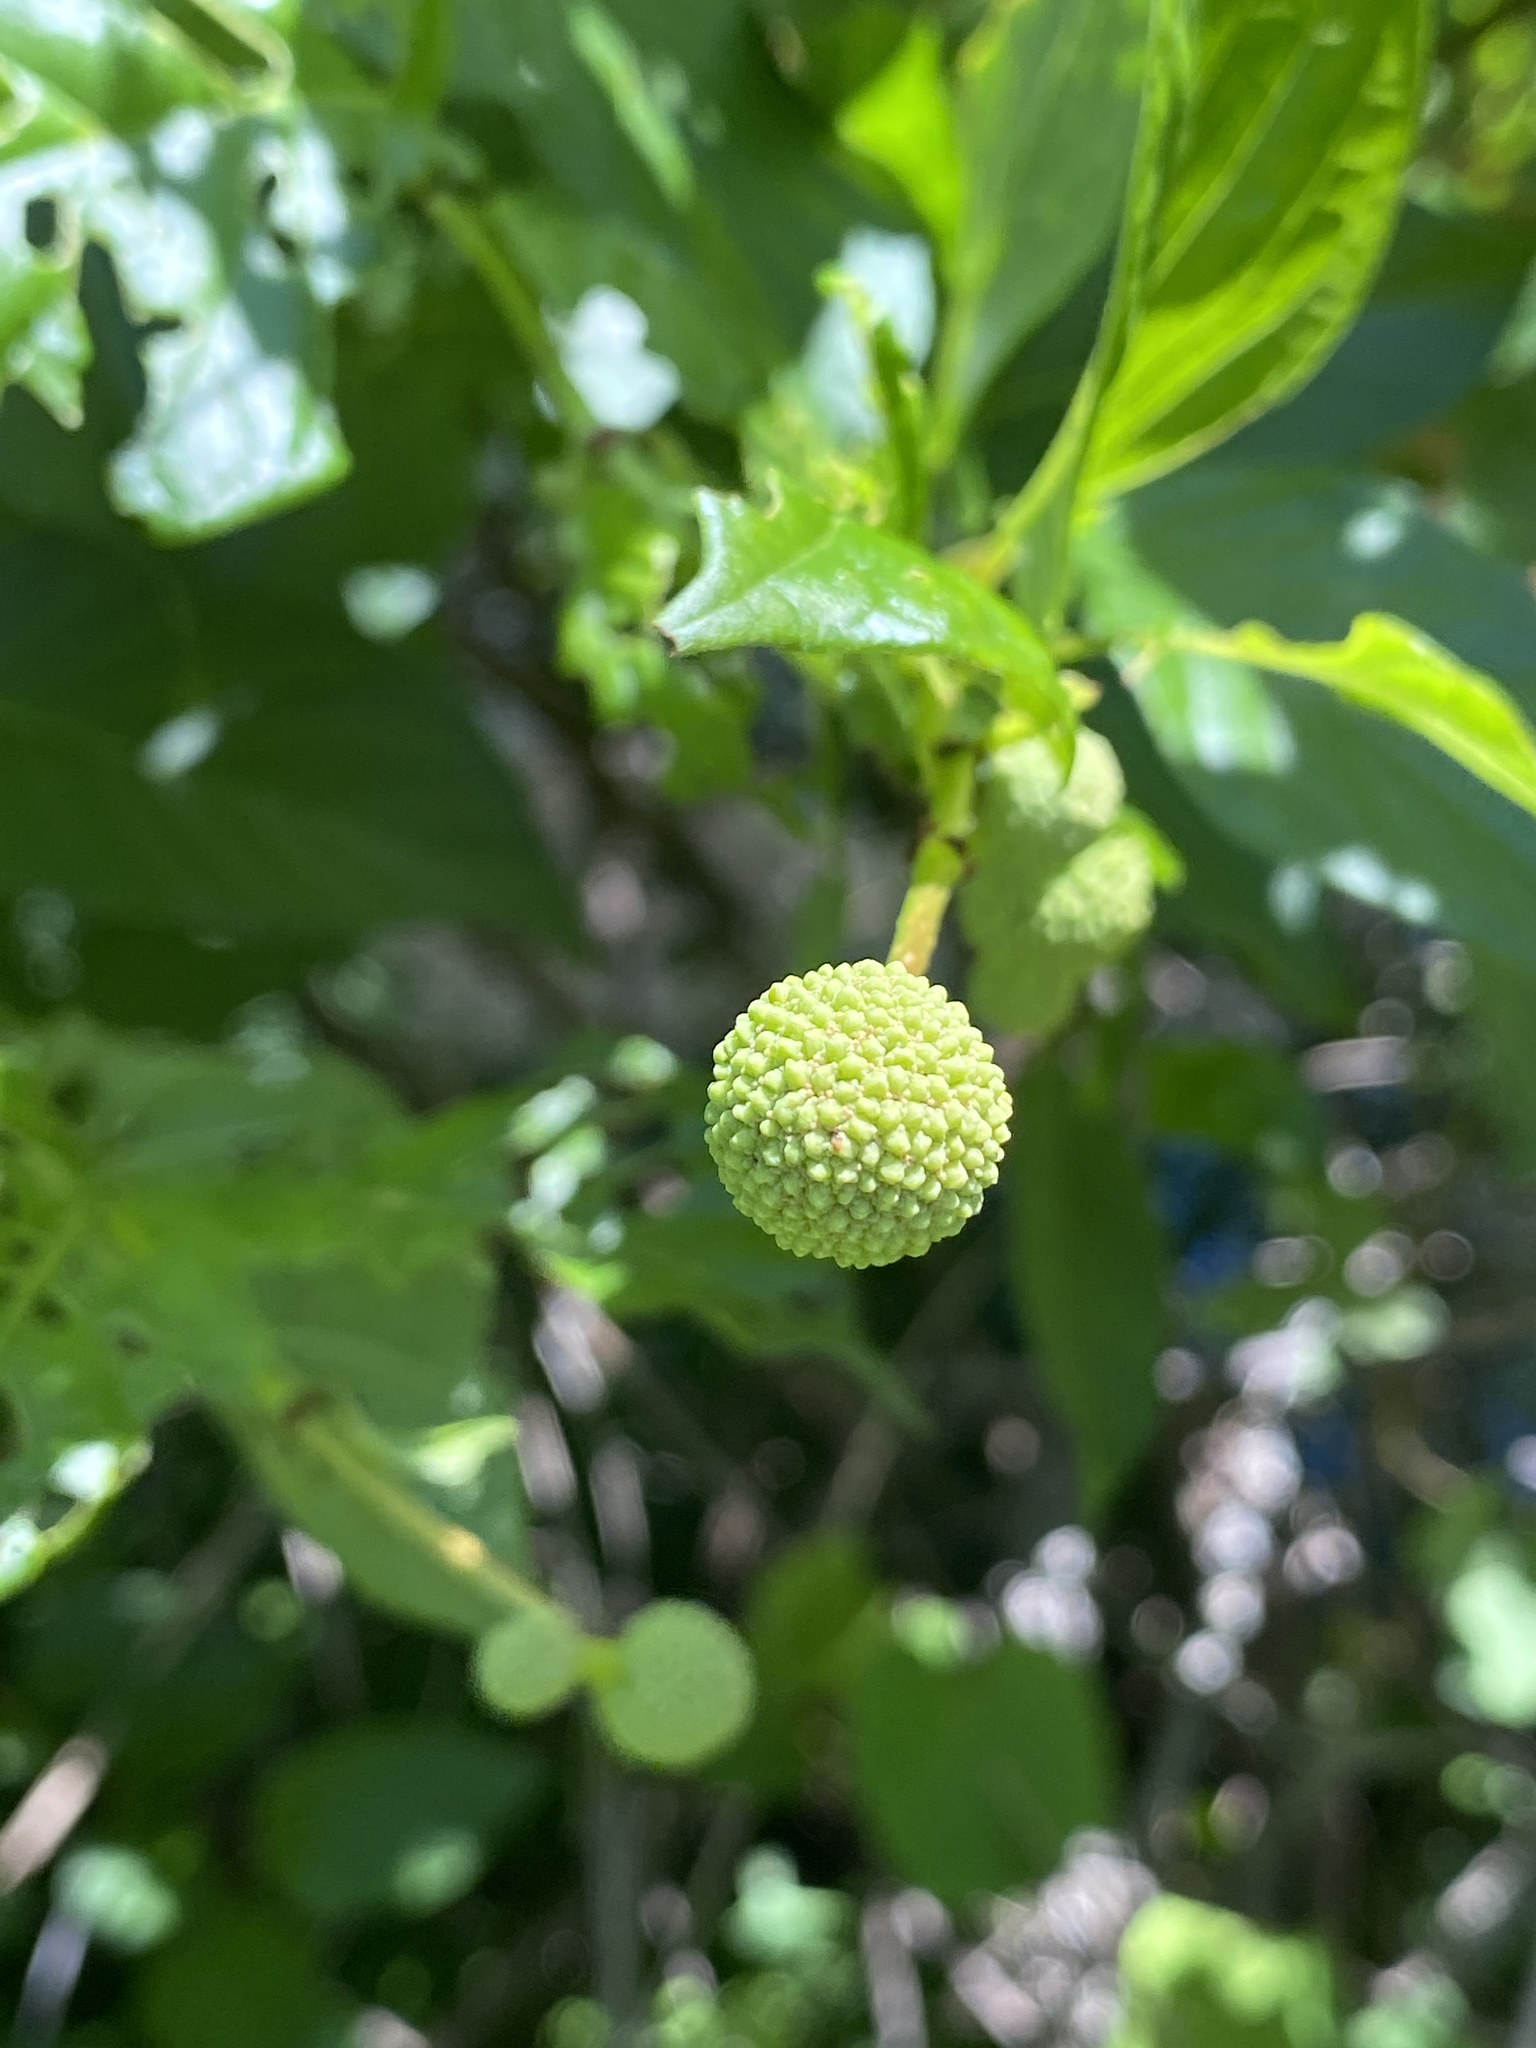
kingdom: Plantae
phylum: Tracheophyta
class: Magnoliopsida
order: Gentianales
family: Rubiaceae
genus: Cephalanthus
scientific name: Cephalanthus occidentalis
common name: Button-willow
